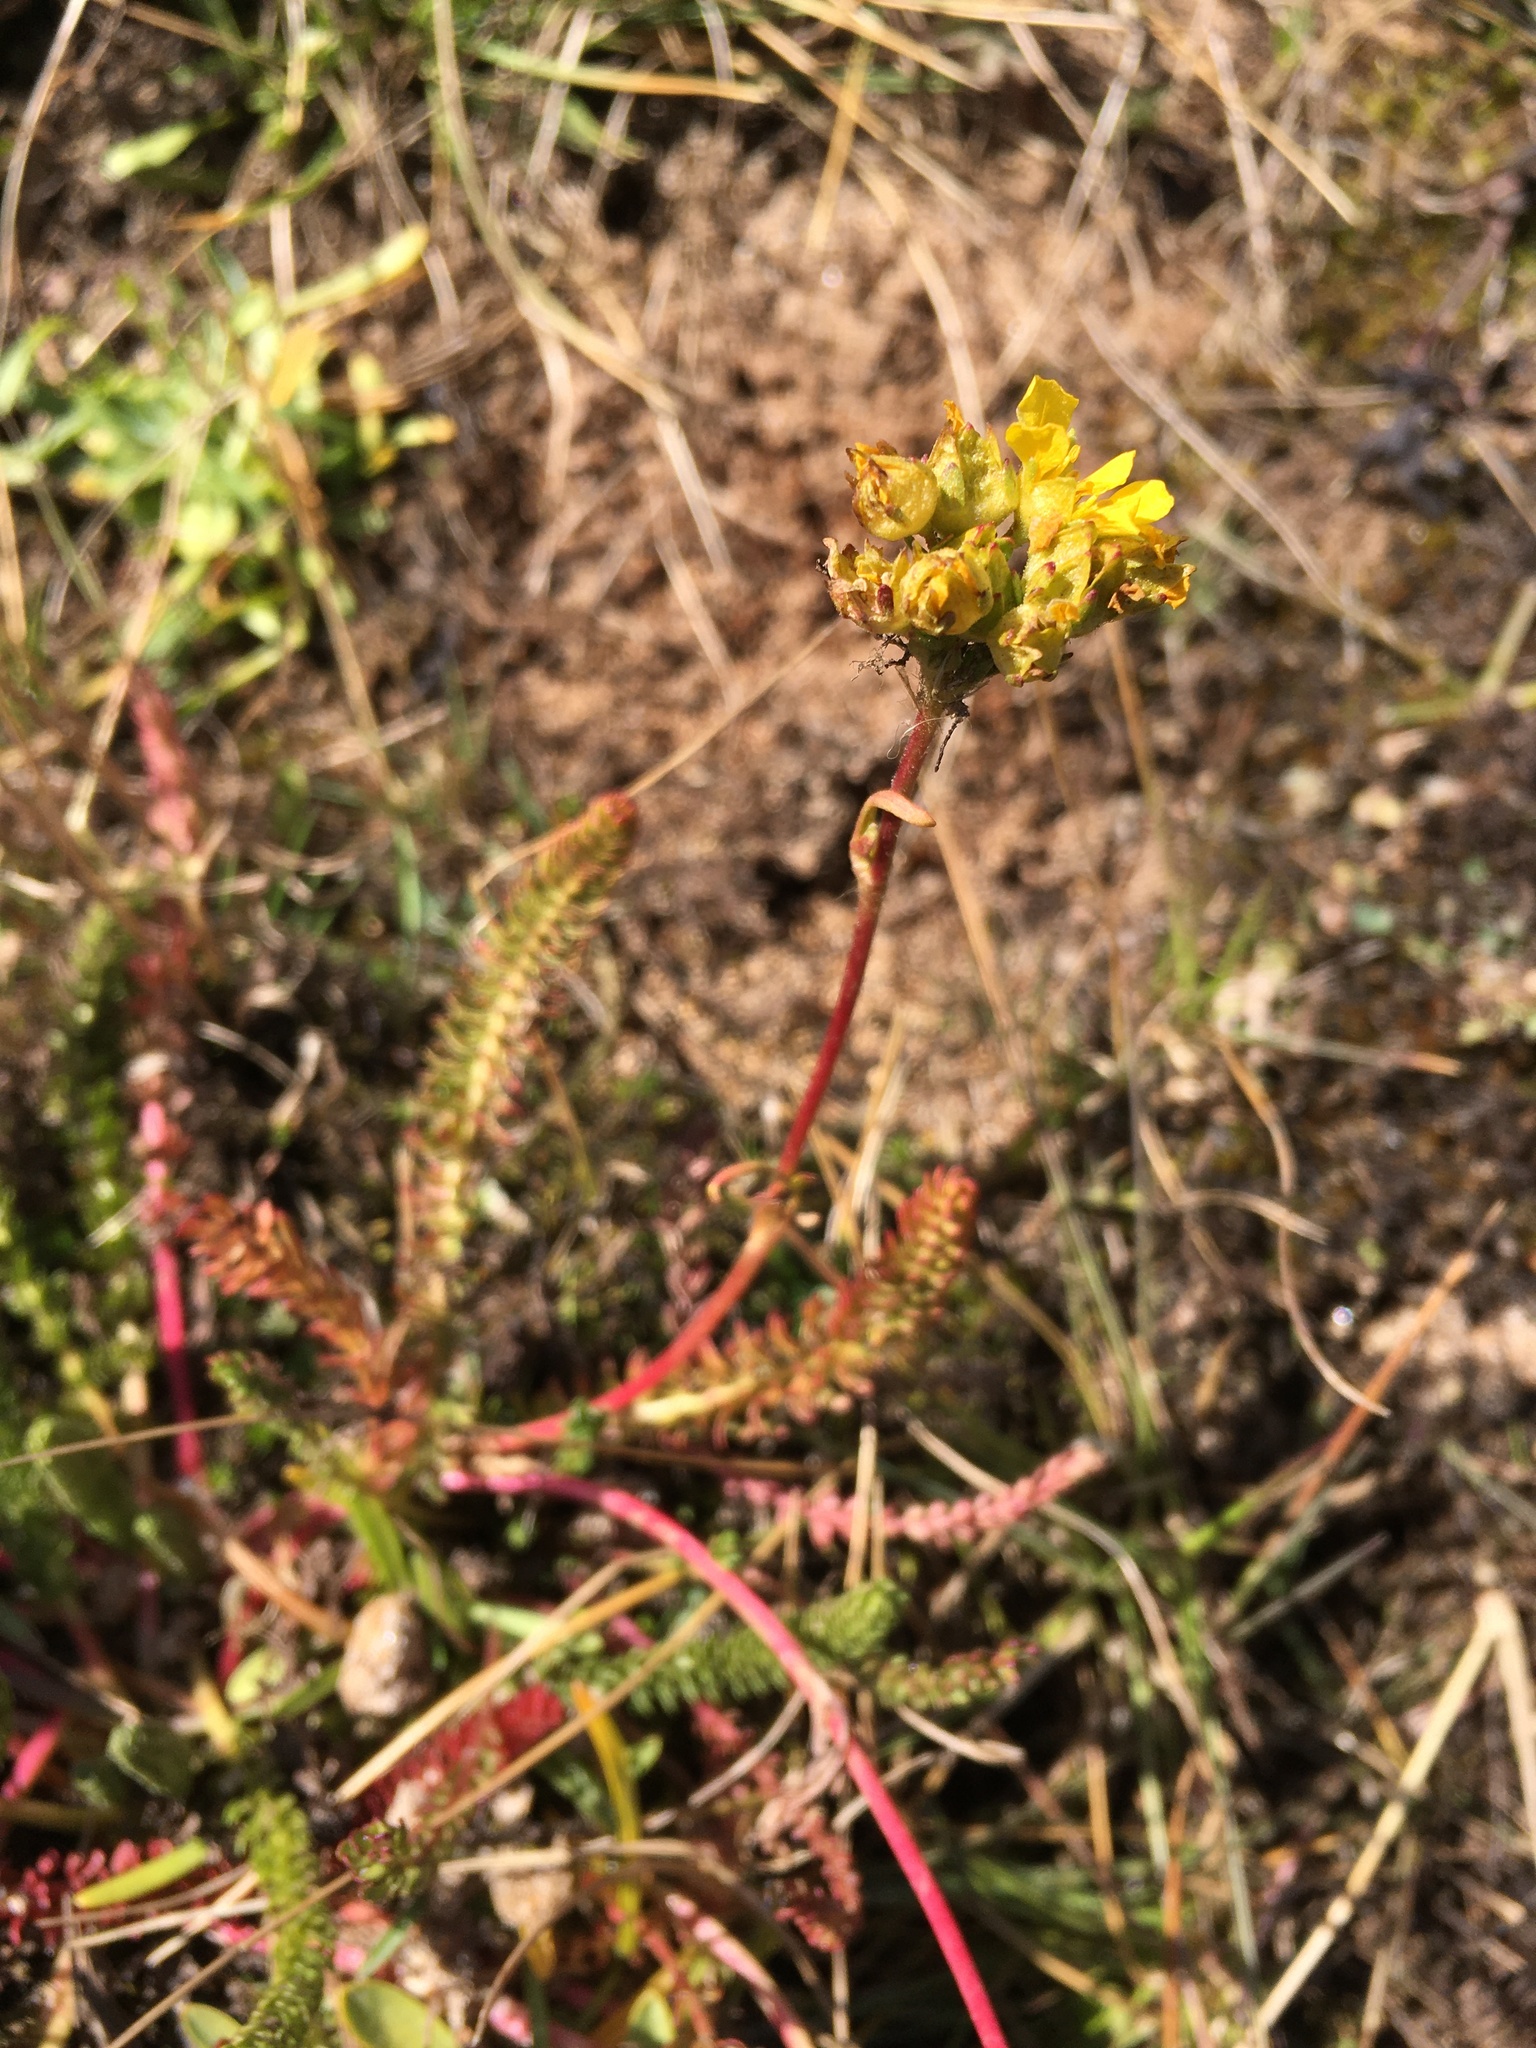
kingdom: Plantae
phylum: Tracheophyta
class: Magnoliopsida
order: Rosales
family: Rosaceae
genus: Potentilla
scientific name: Potentilla lycopodioides
